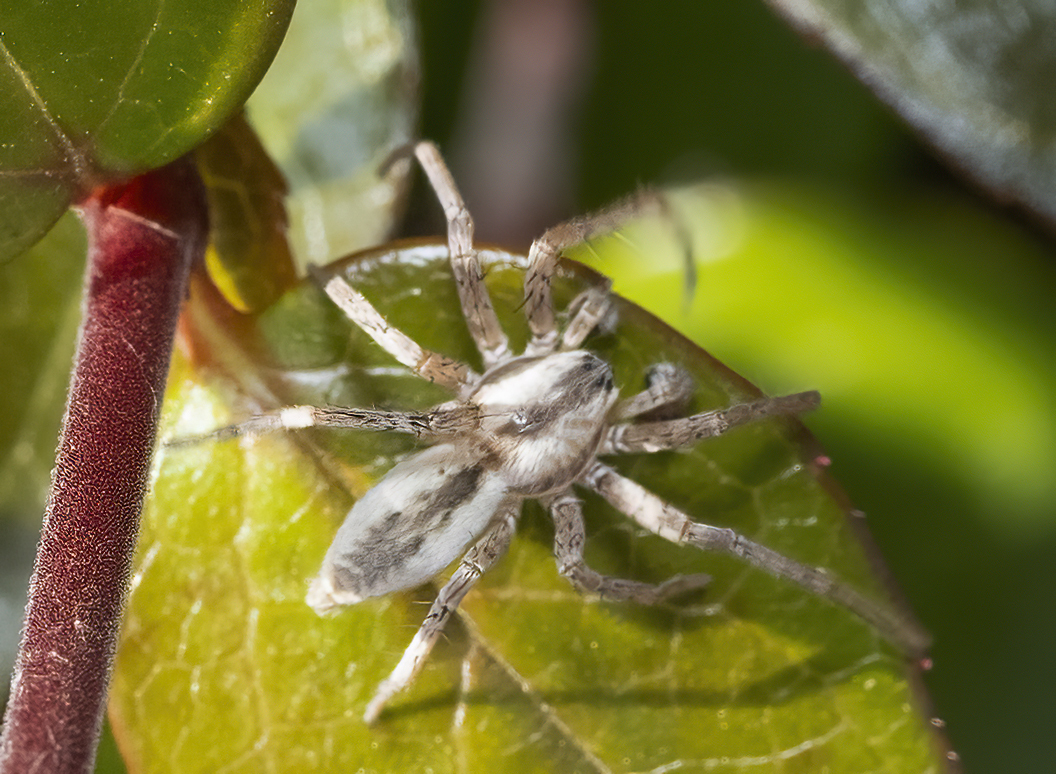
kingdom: Animalia
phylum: Arthropoda
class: Arachnida
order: Araneae
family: Anyphaenidae
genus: Arachosia
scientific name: Arachosia praesignis
